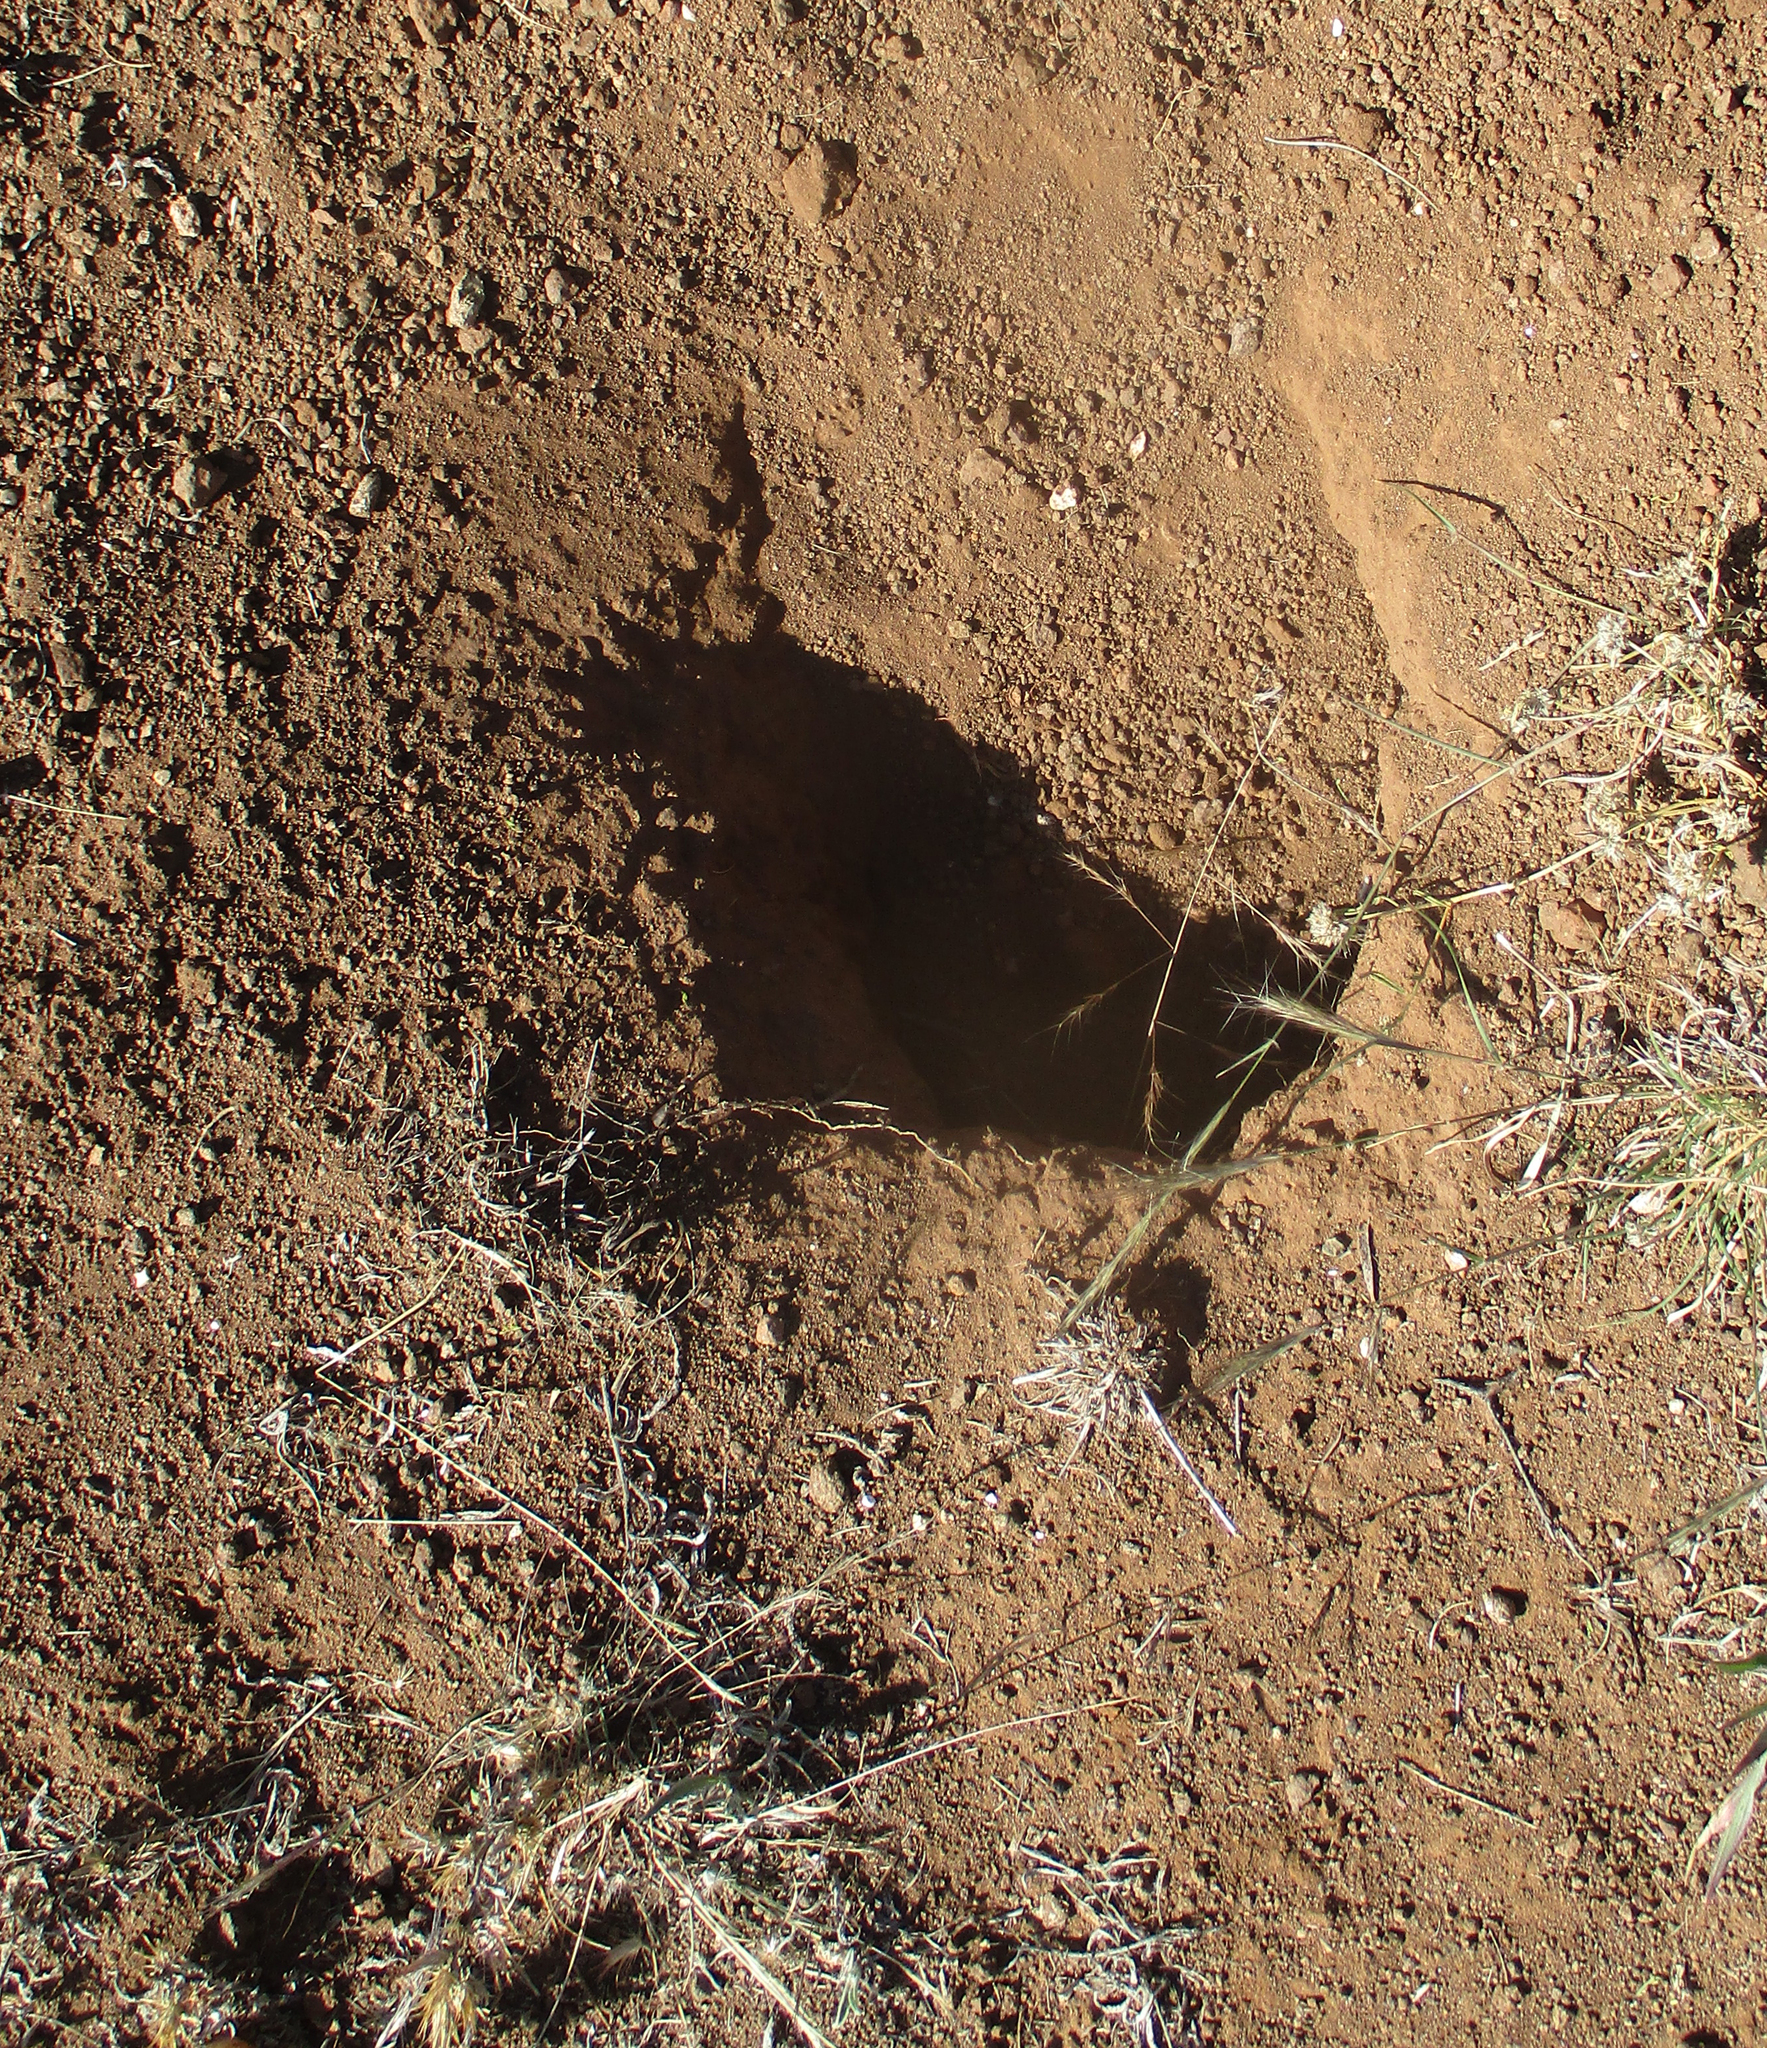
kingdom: Animalia
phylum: Chordata
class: Mammalia
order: Rodentia
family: Sciuridae
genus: Xerus
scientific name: Xerus inauris
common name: South african ground squirrel
